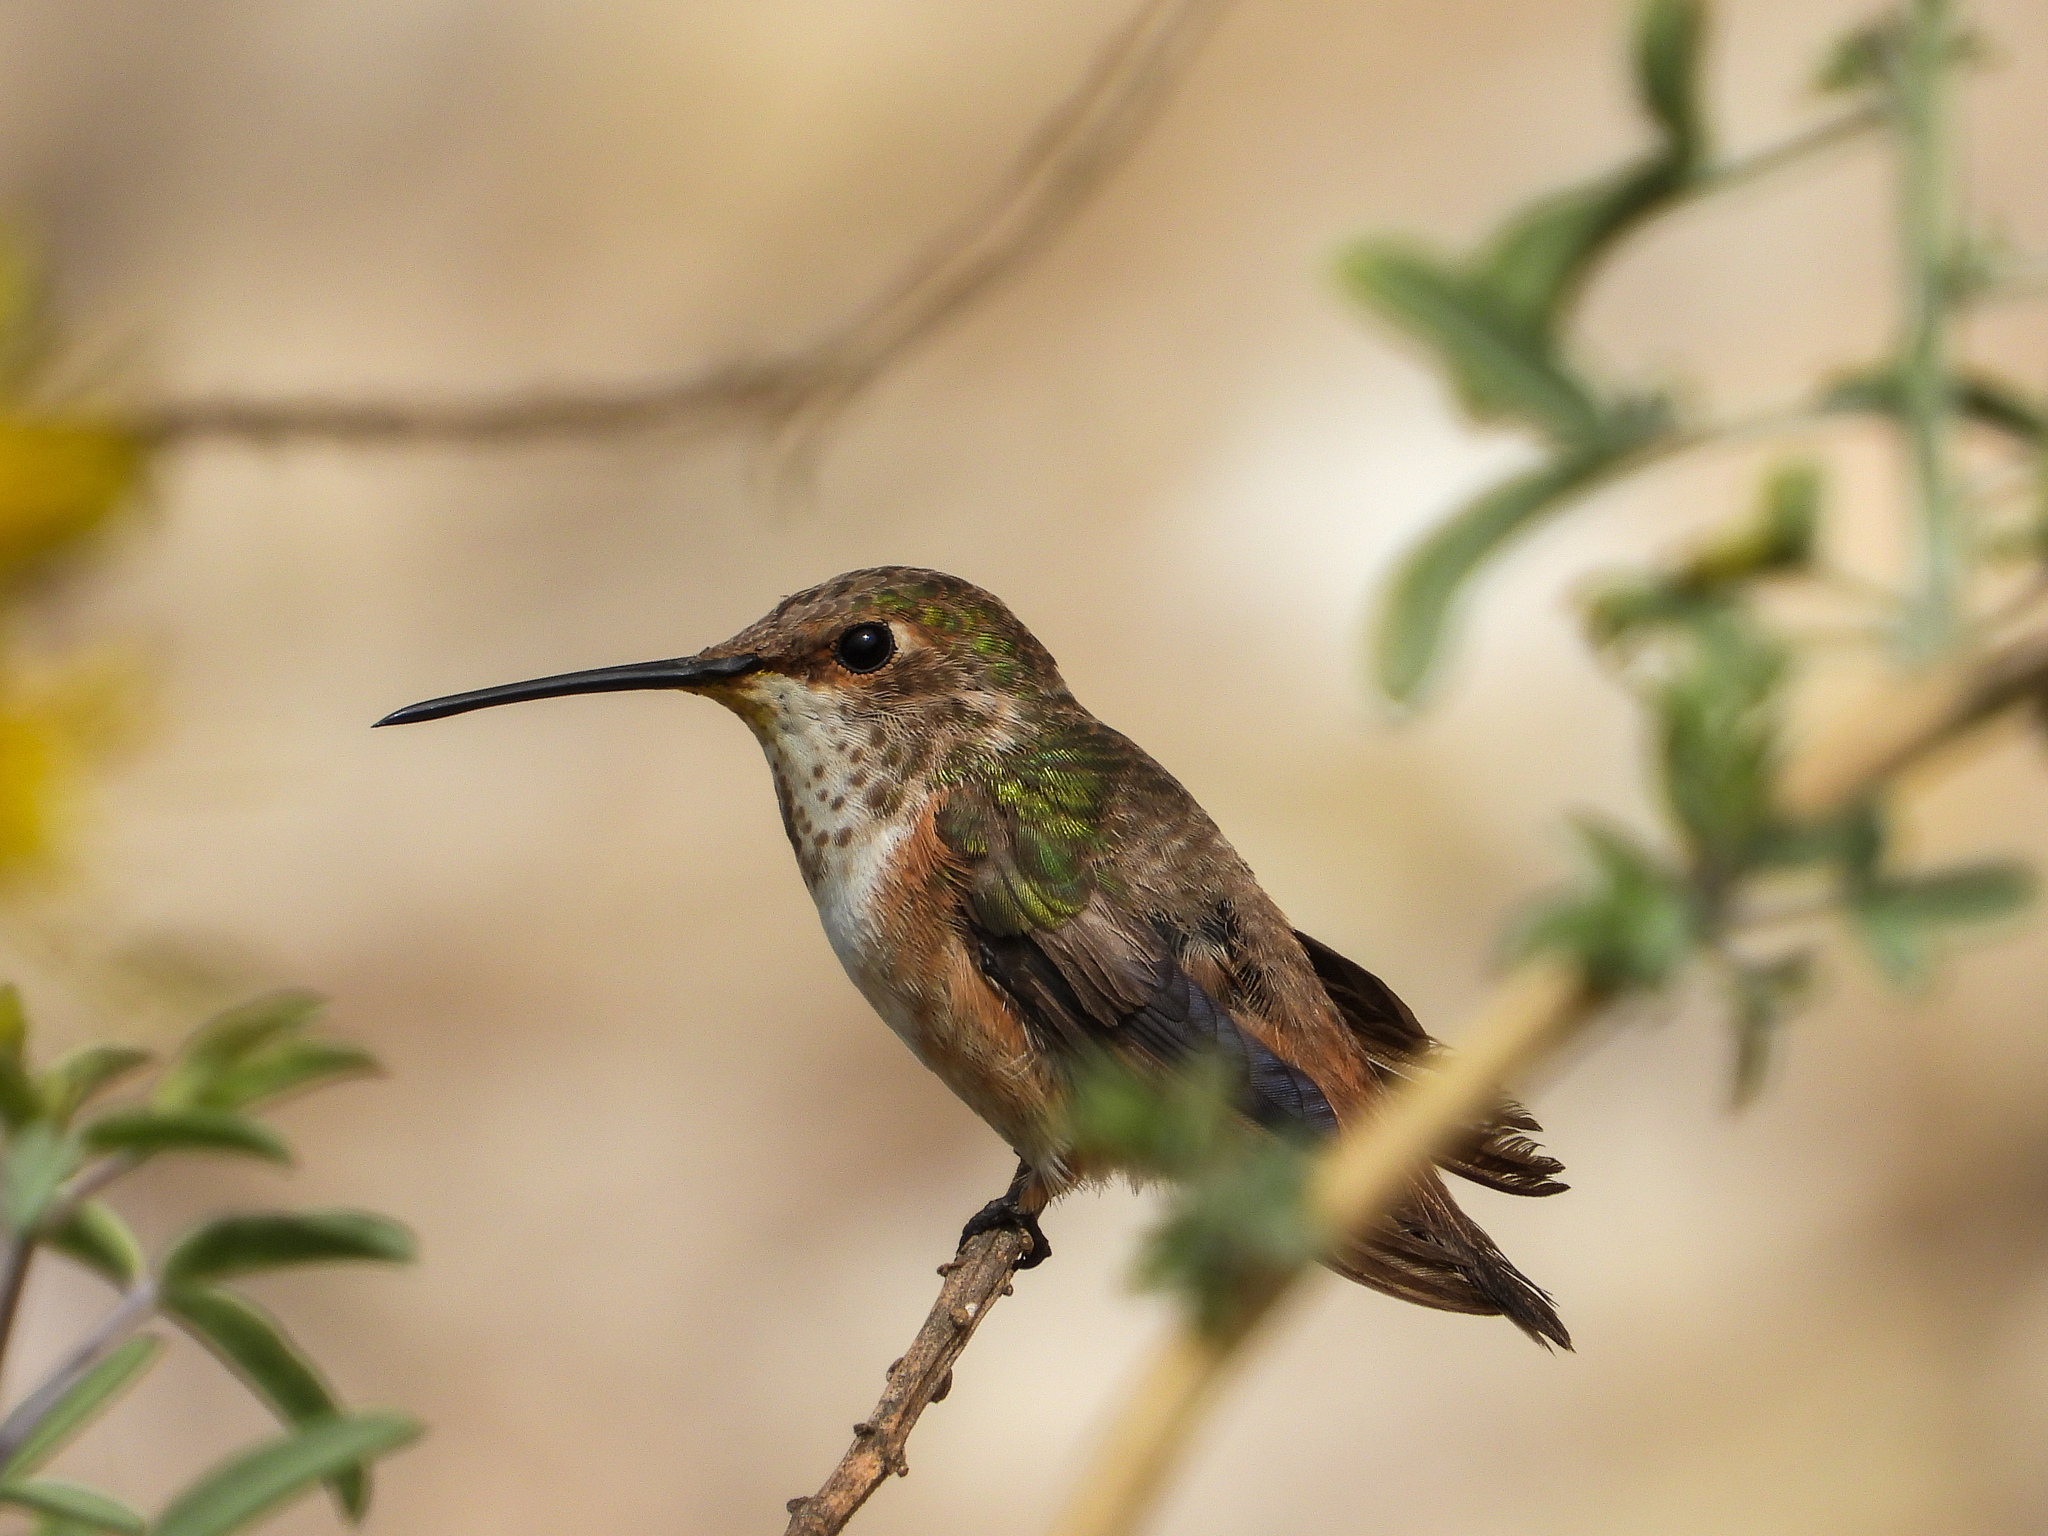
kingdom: Animalia
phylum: Chordata
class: Aves
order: Apodiformes
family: Trochilidae
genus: Selasphorus
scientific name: Selasphorus sasin
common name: Allen's hummingbird
